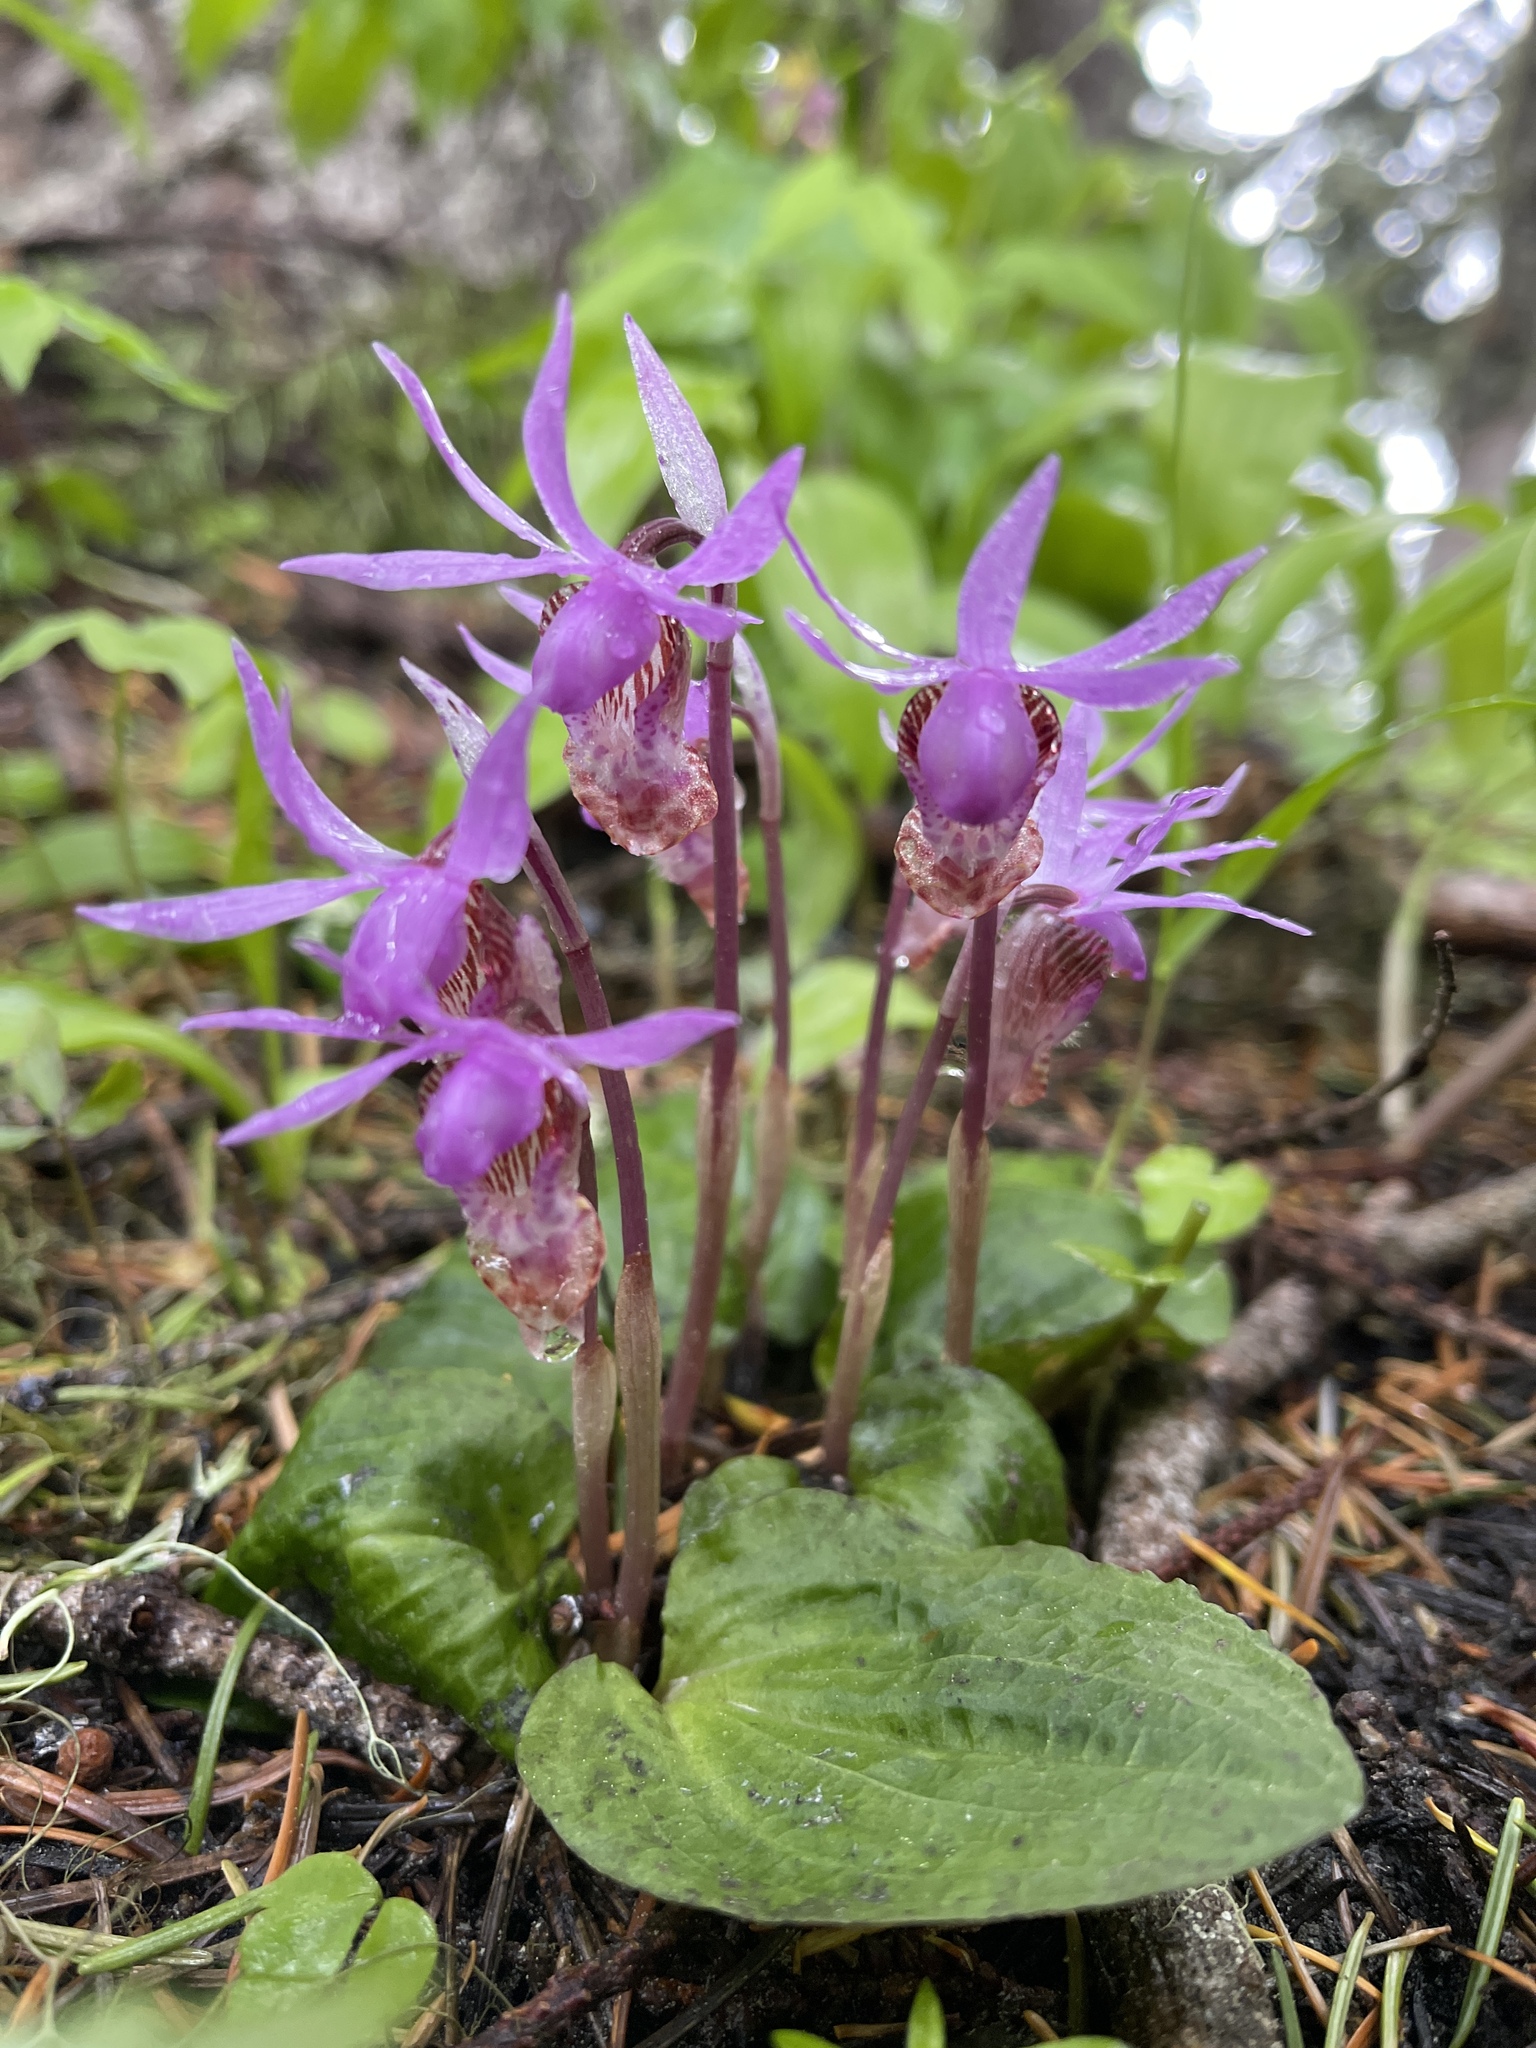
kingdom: Plantae
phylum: Tracheophyta
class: Liliopsida
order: Asparagales
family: Orchidaceae
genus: Calypso
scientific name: Calypso bulbosa
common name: Calypso
